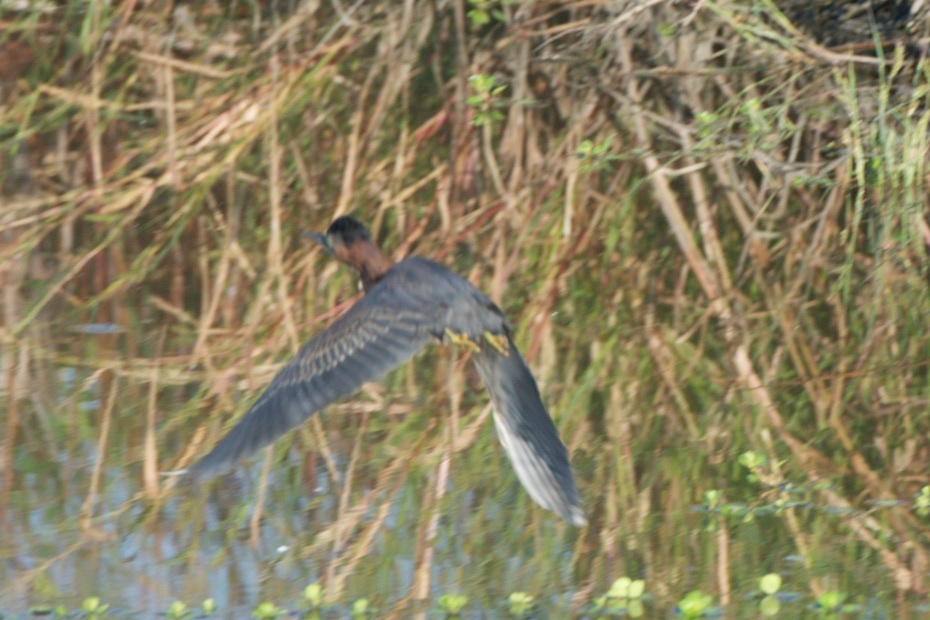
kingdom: Animalia
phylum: Chordata
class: Aves
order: Pelecaniformes
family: Ardeidae
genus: Butorides
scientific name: Butorides virescens
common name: Green heron
